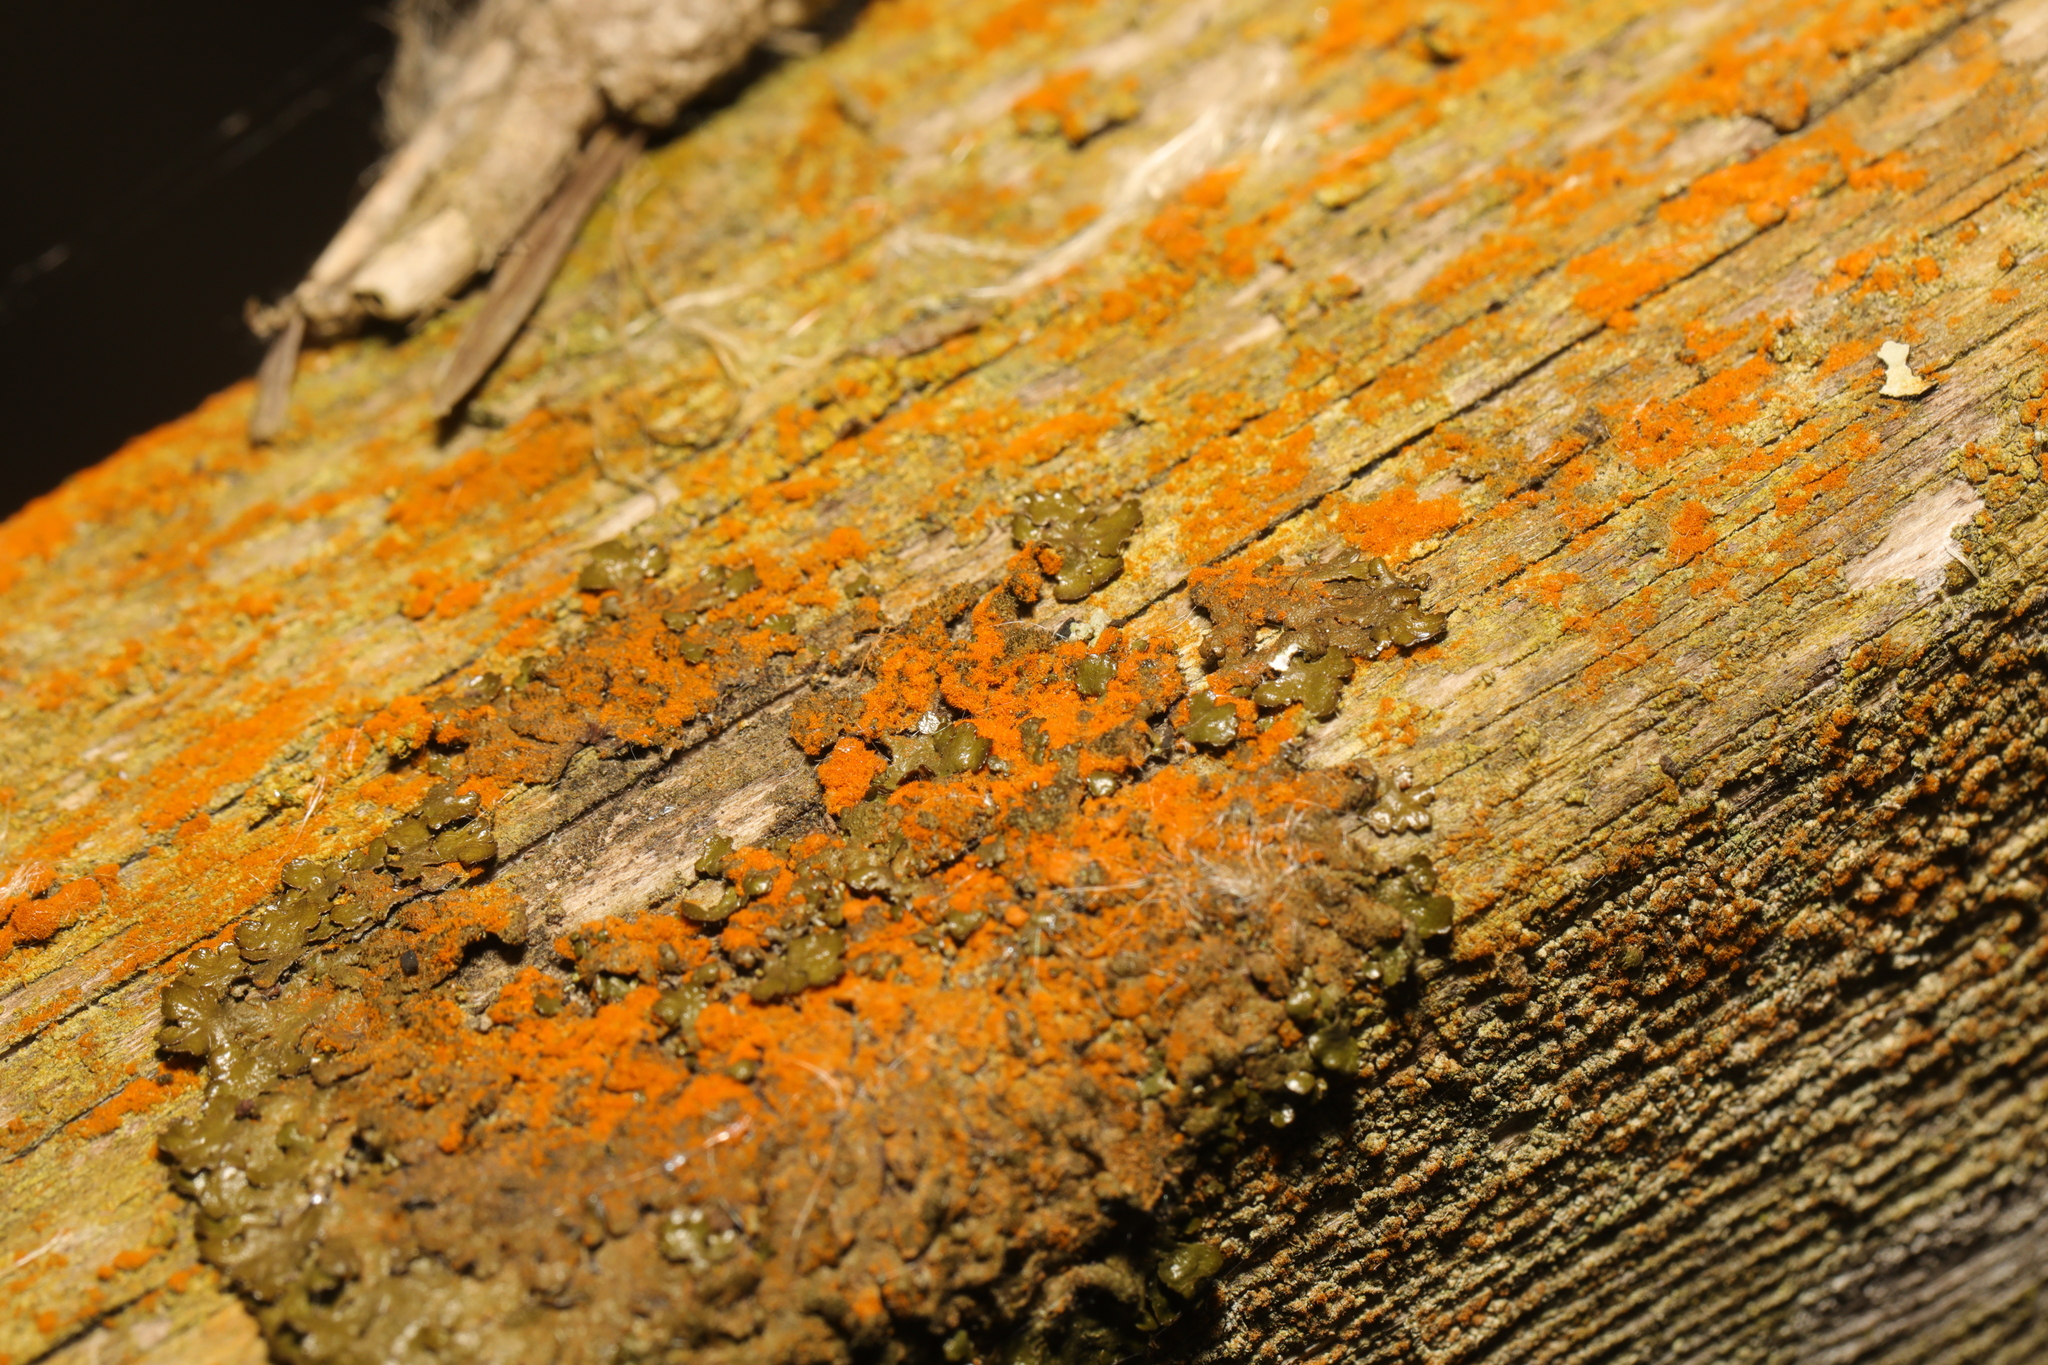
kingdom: Plantae
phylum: Chlorophyta
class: Ulvophyceae
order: Trentepohliales
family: Trentepohliaceae
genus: Trentepohlia
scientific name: Trentepohlia
